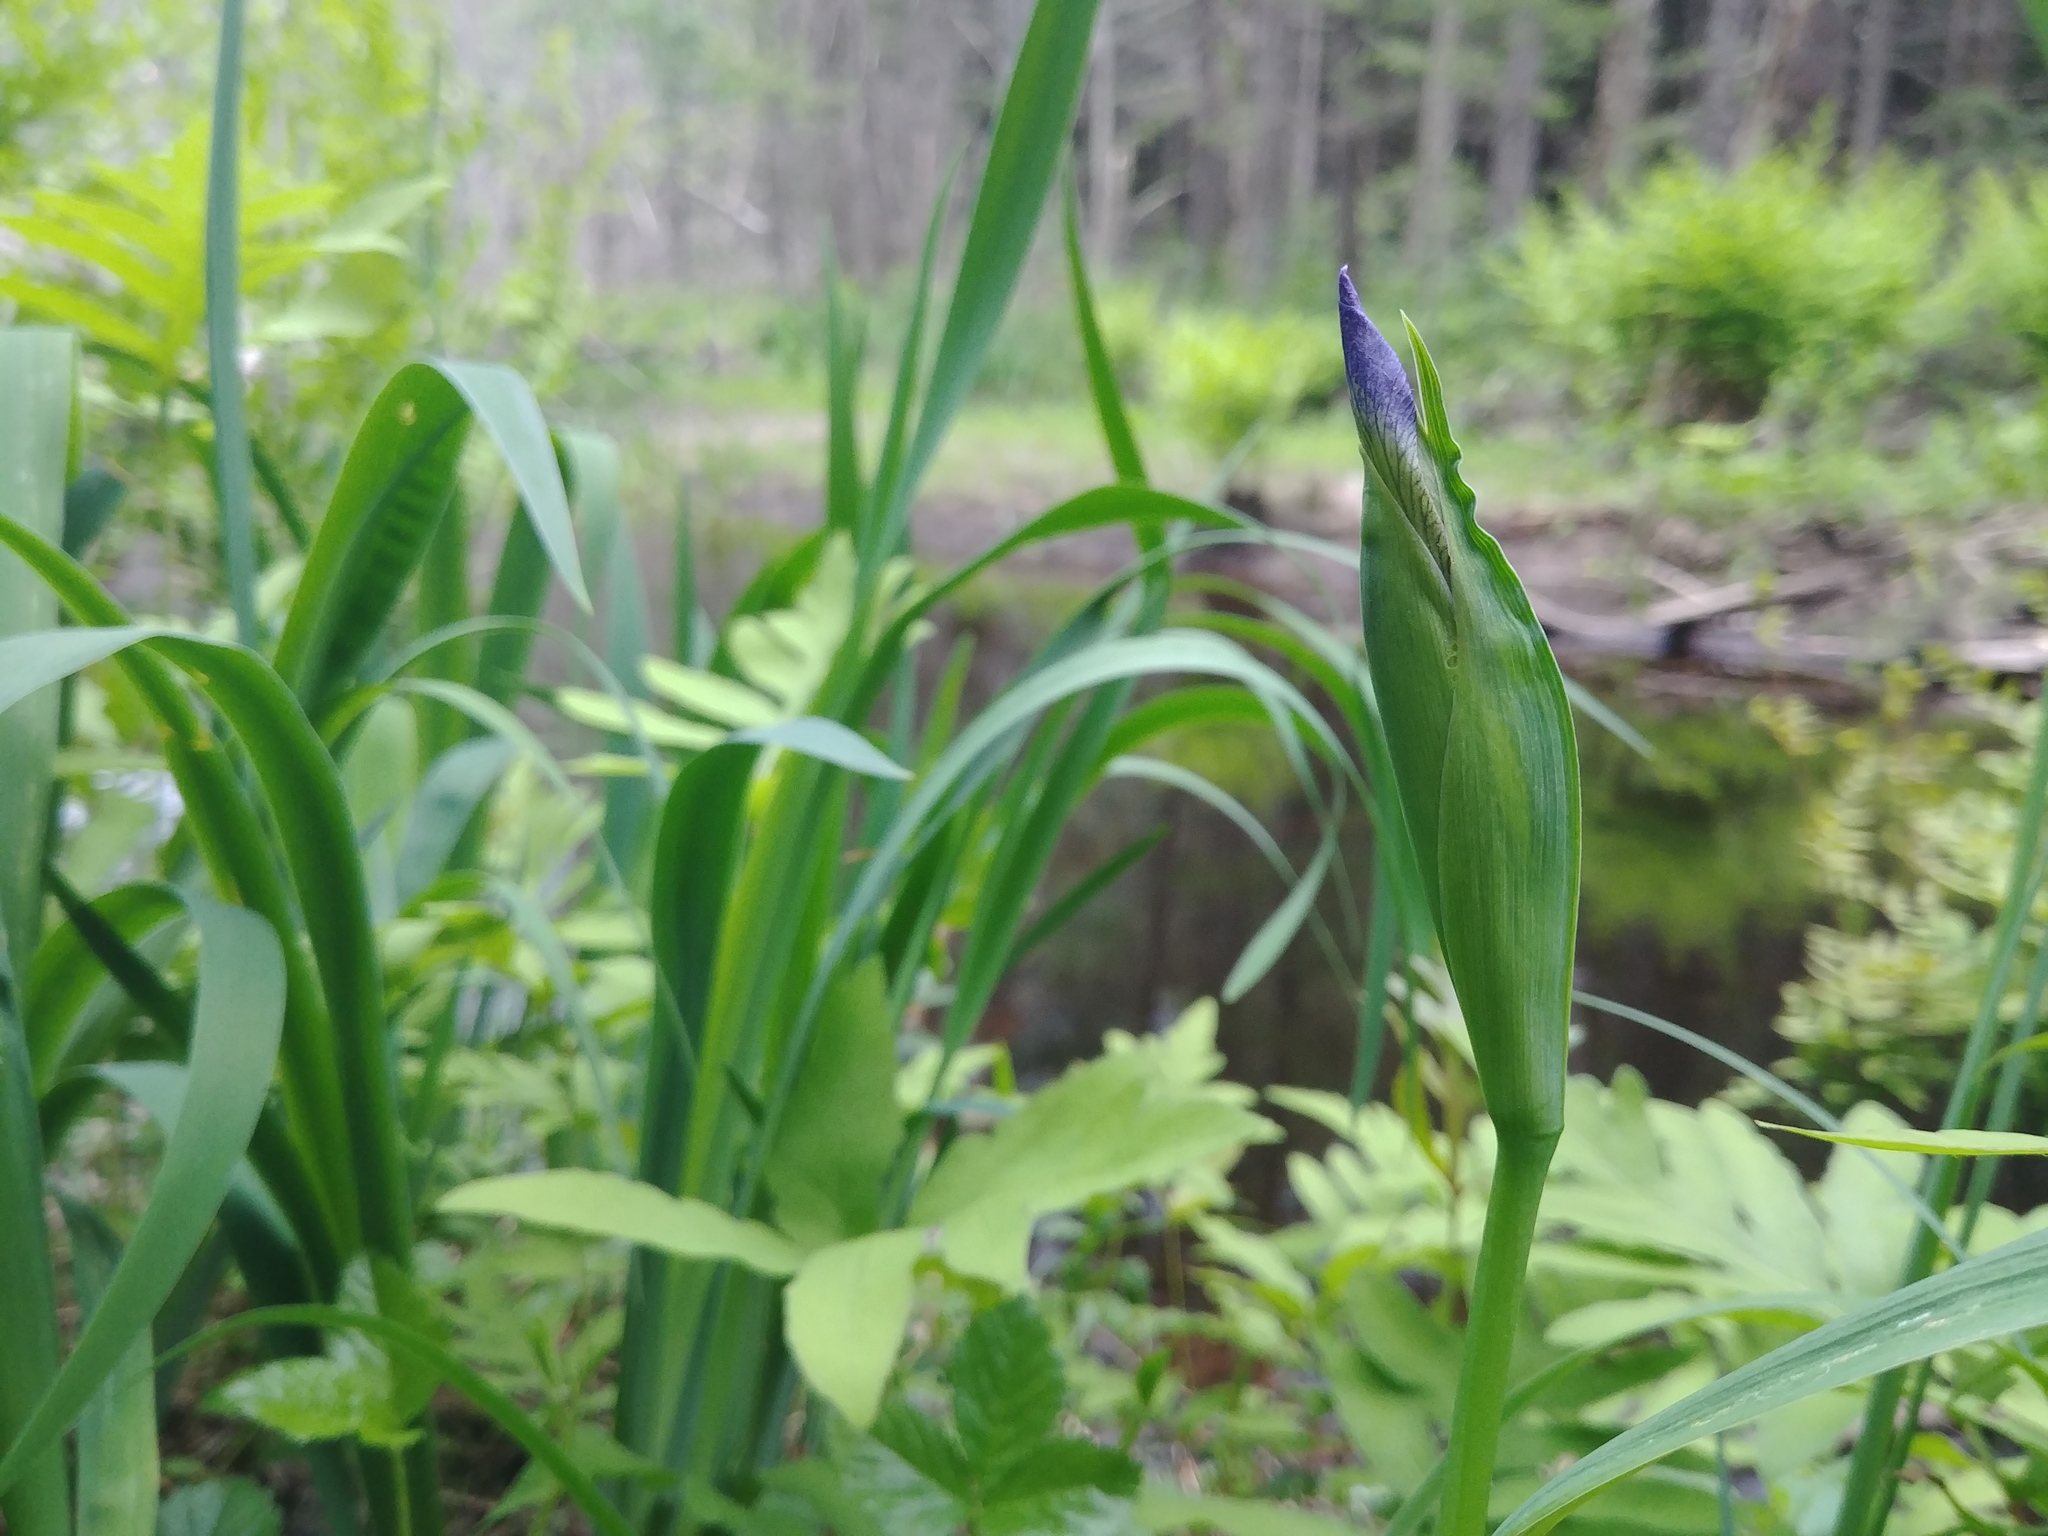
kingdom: Plantae
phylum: Tracheophyta
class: Liliopsida
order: Asparagales
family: Iridaceae
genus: Iris
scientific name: Iris versicolor
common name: Purple iris
